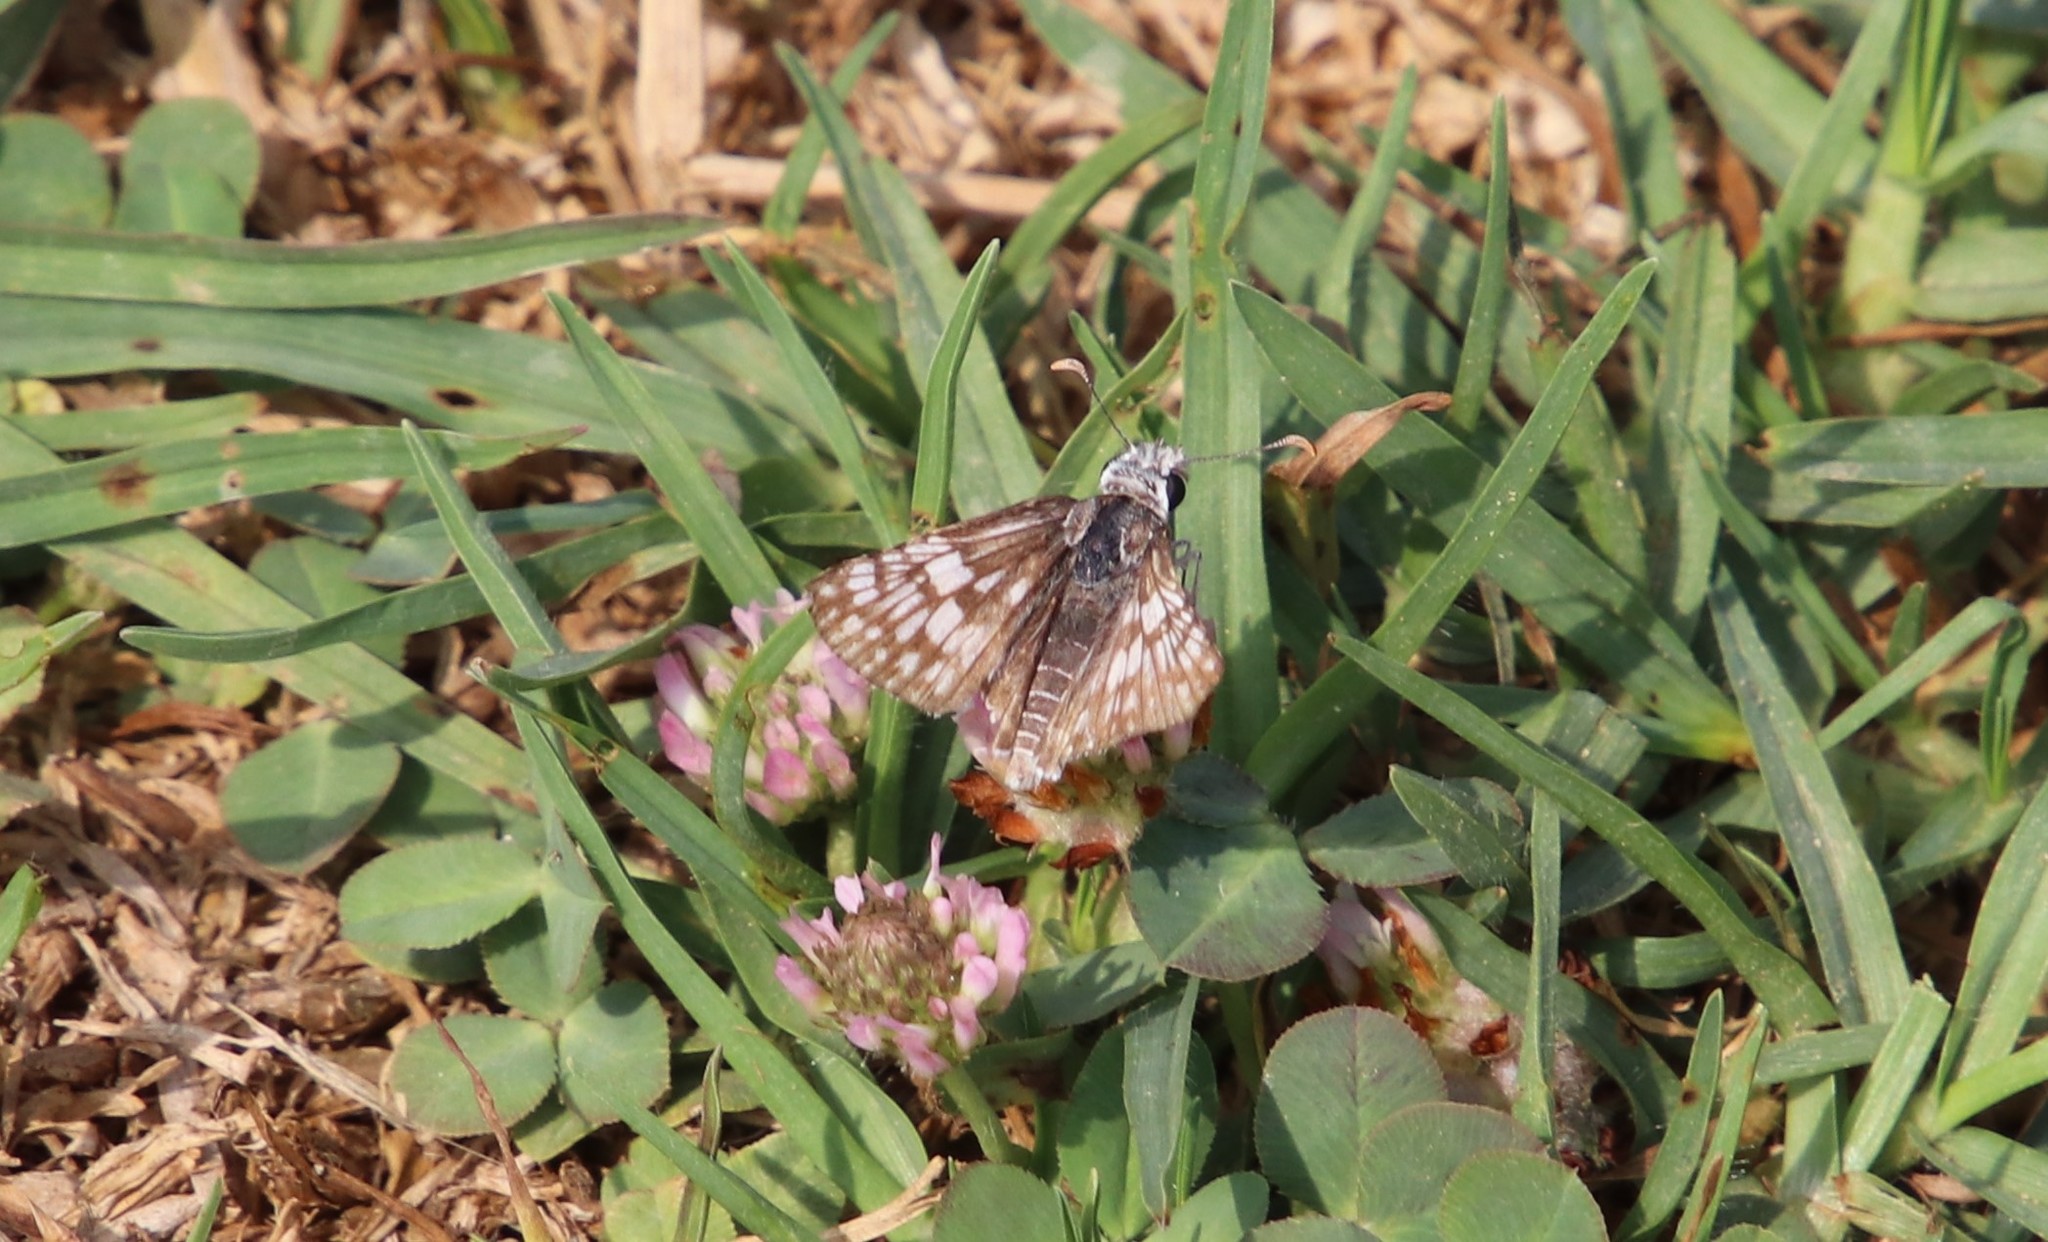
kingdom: Animalia
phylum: Arthropoda
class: Insecta
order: Lepidoptera
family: Hesperiidae
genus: Burnsius
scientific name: Burnsius albezens
